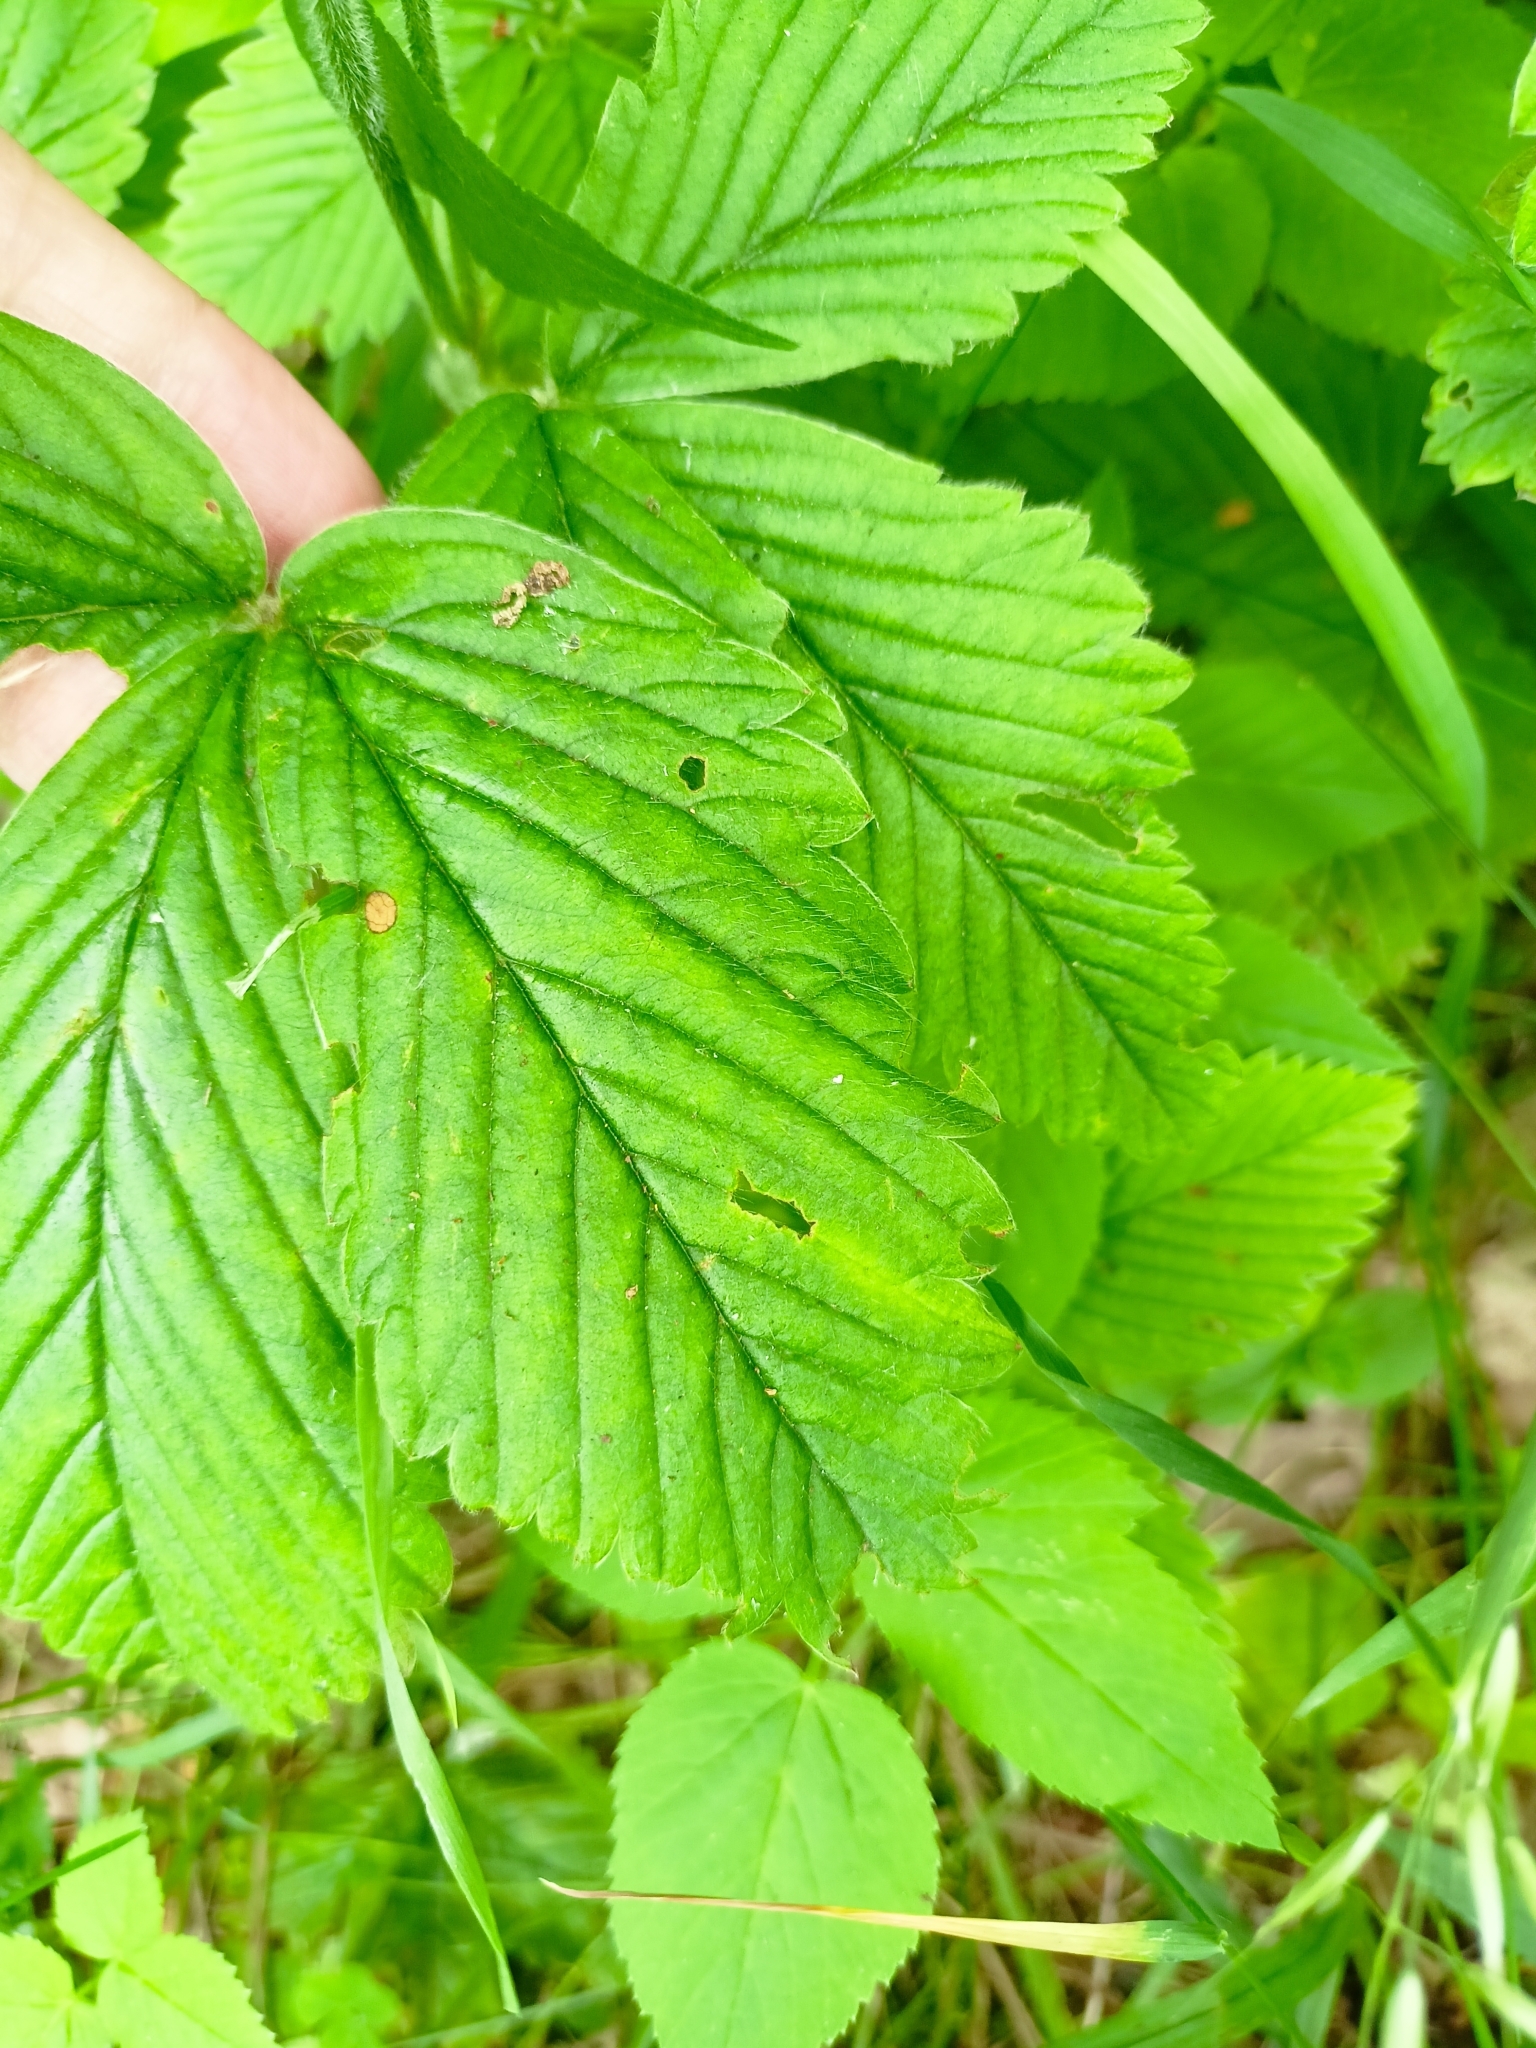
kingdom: Plantae
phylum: Tracheophyta
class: Magnoliopsida
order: Rosales
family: Rosaceae
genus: Fragaria
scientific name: Fragaria moschata
